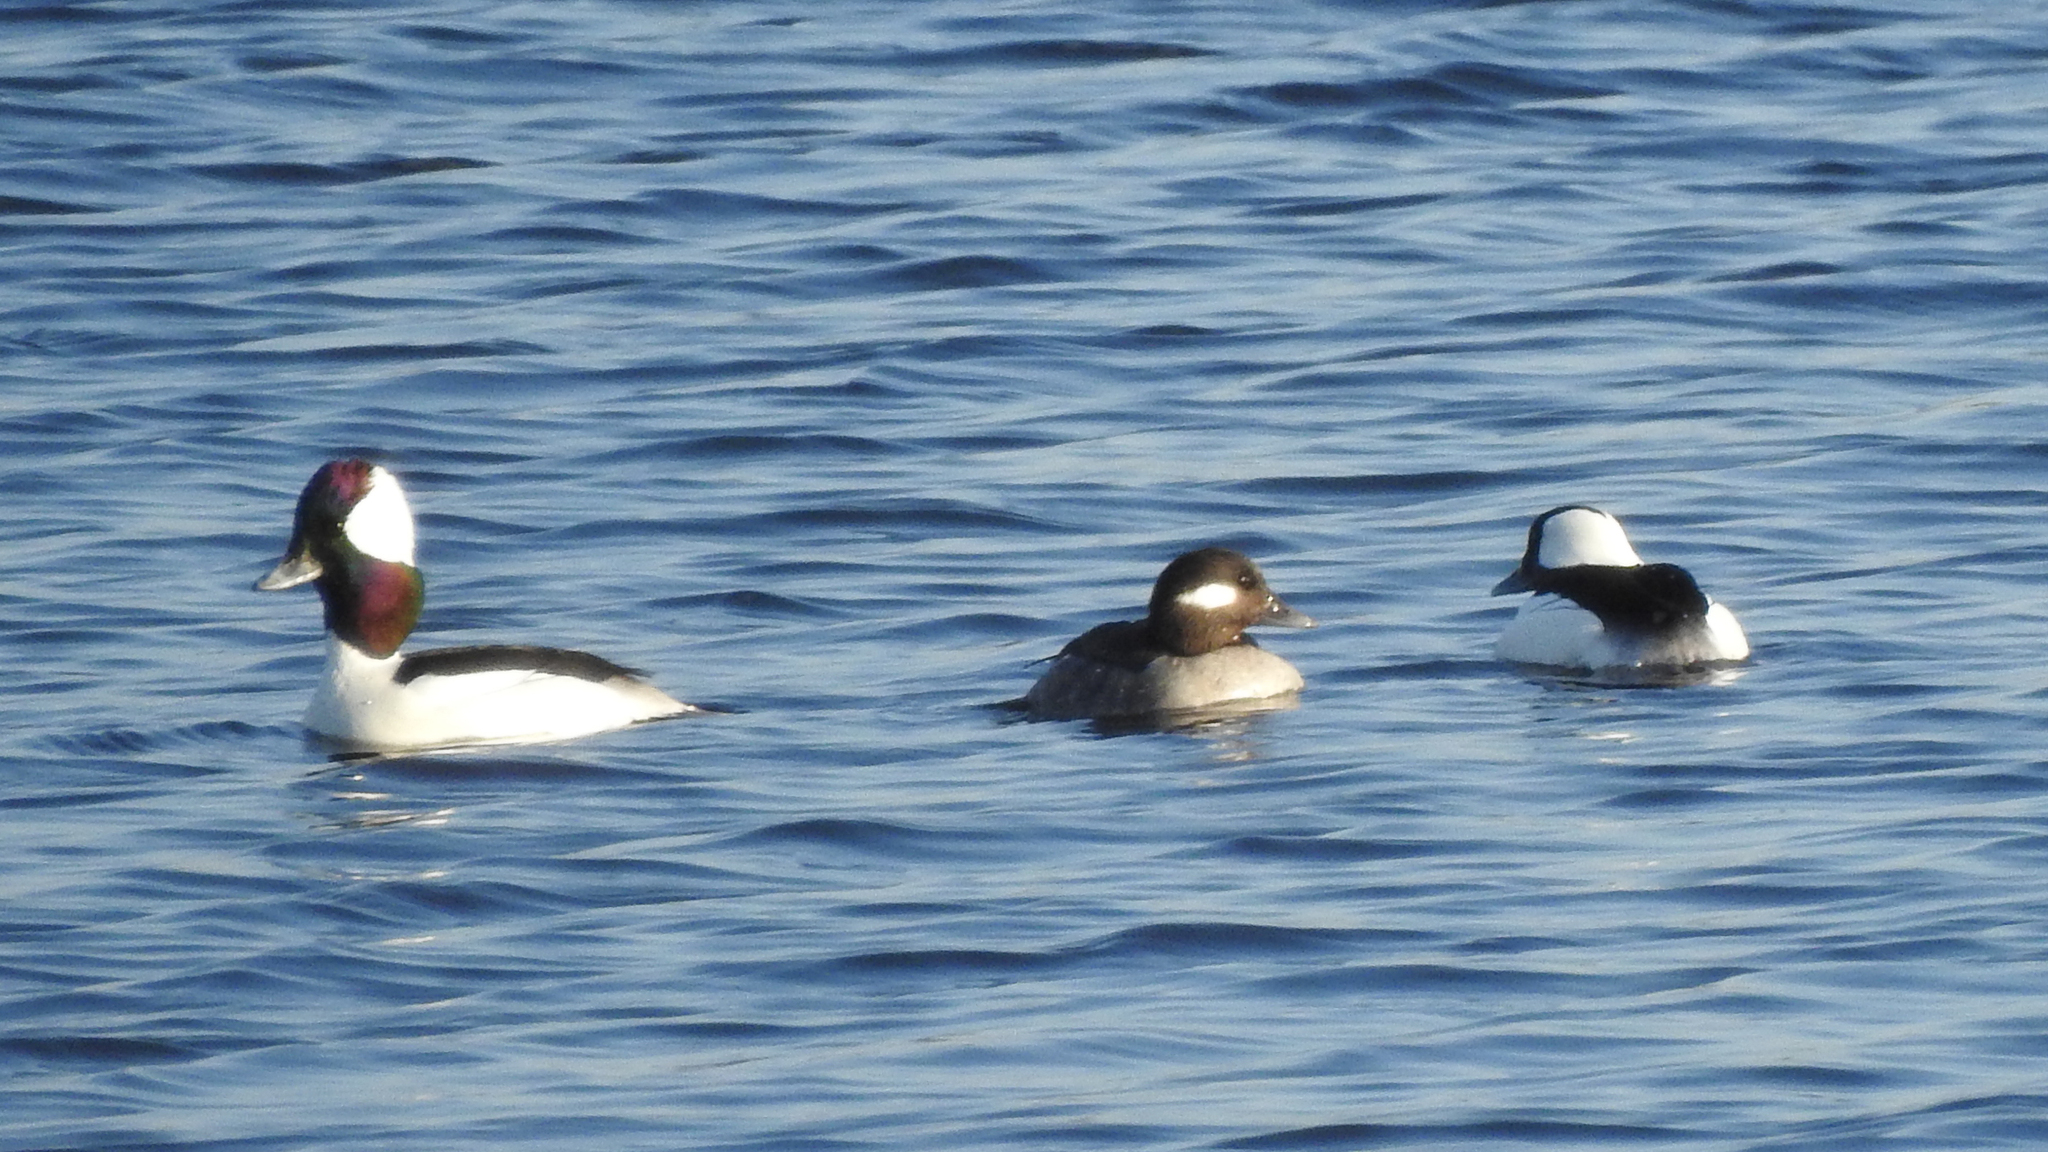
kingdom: Animalia
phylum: Chordata
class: Aves
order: Anseriformes
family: Anatidae
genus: Bucephala
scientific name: Bucephala albeola
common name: Bufflehead
